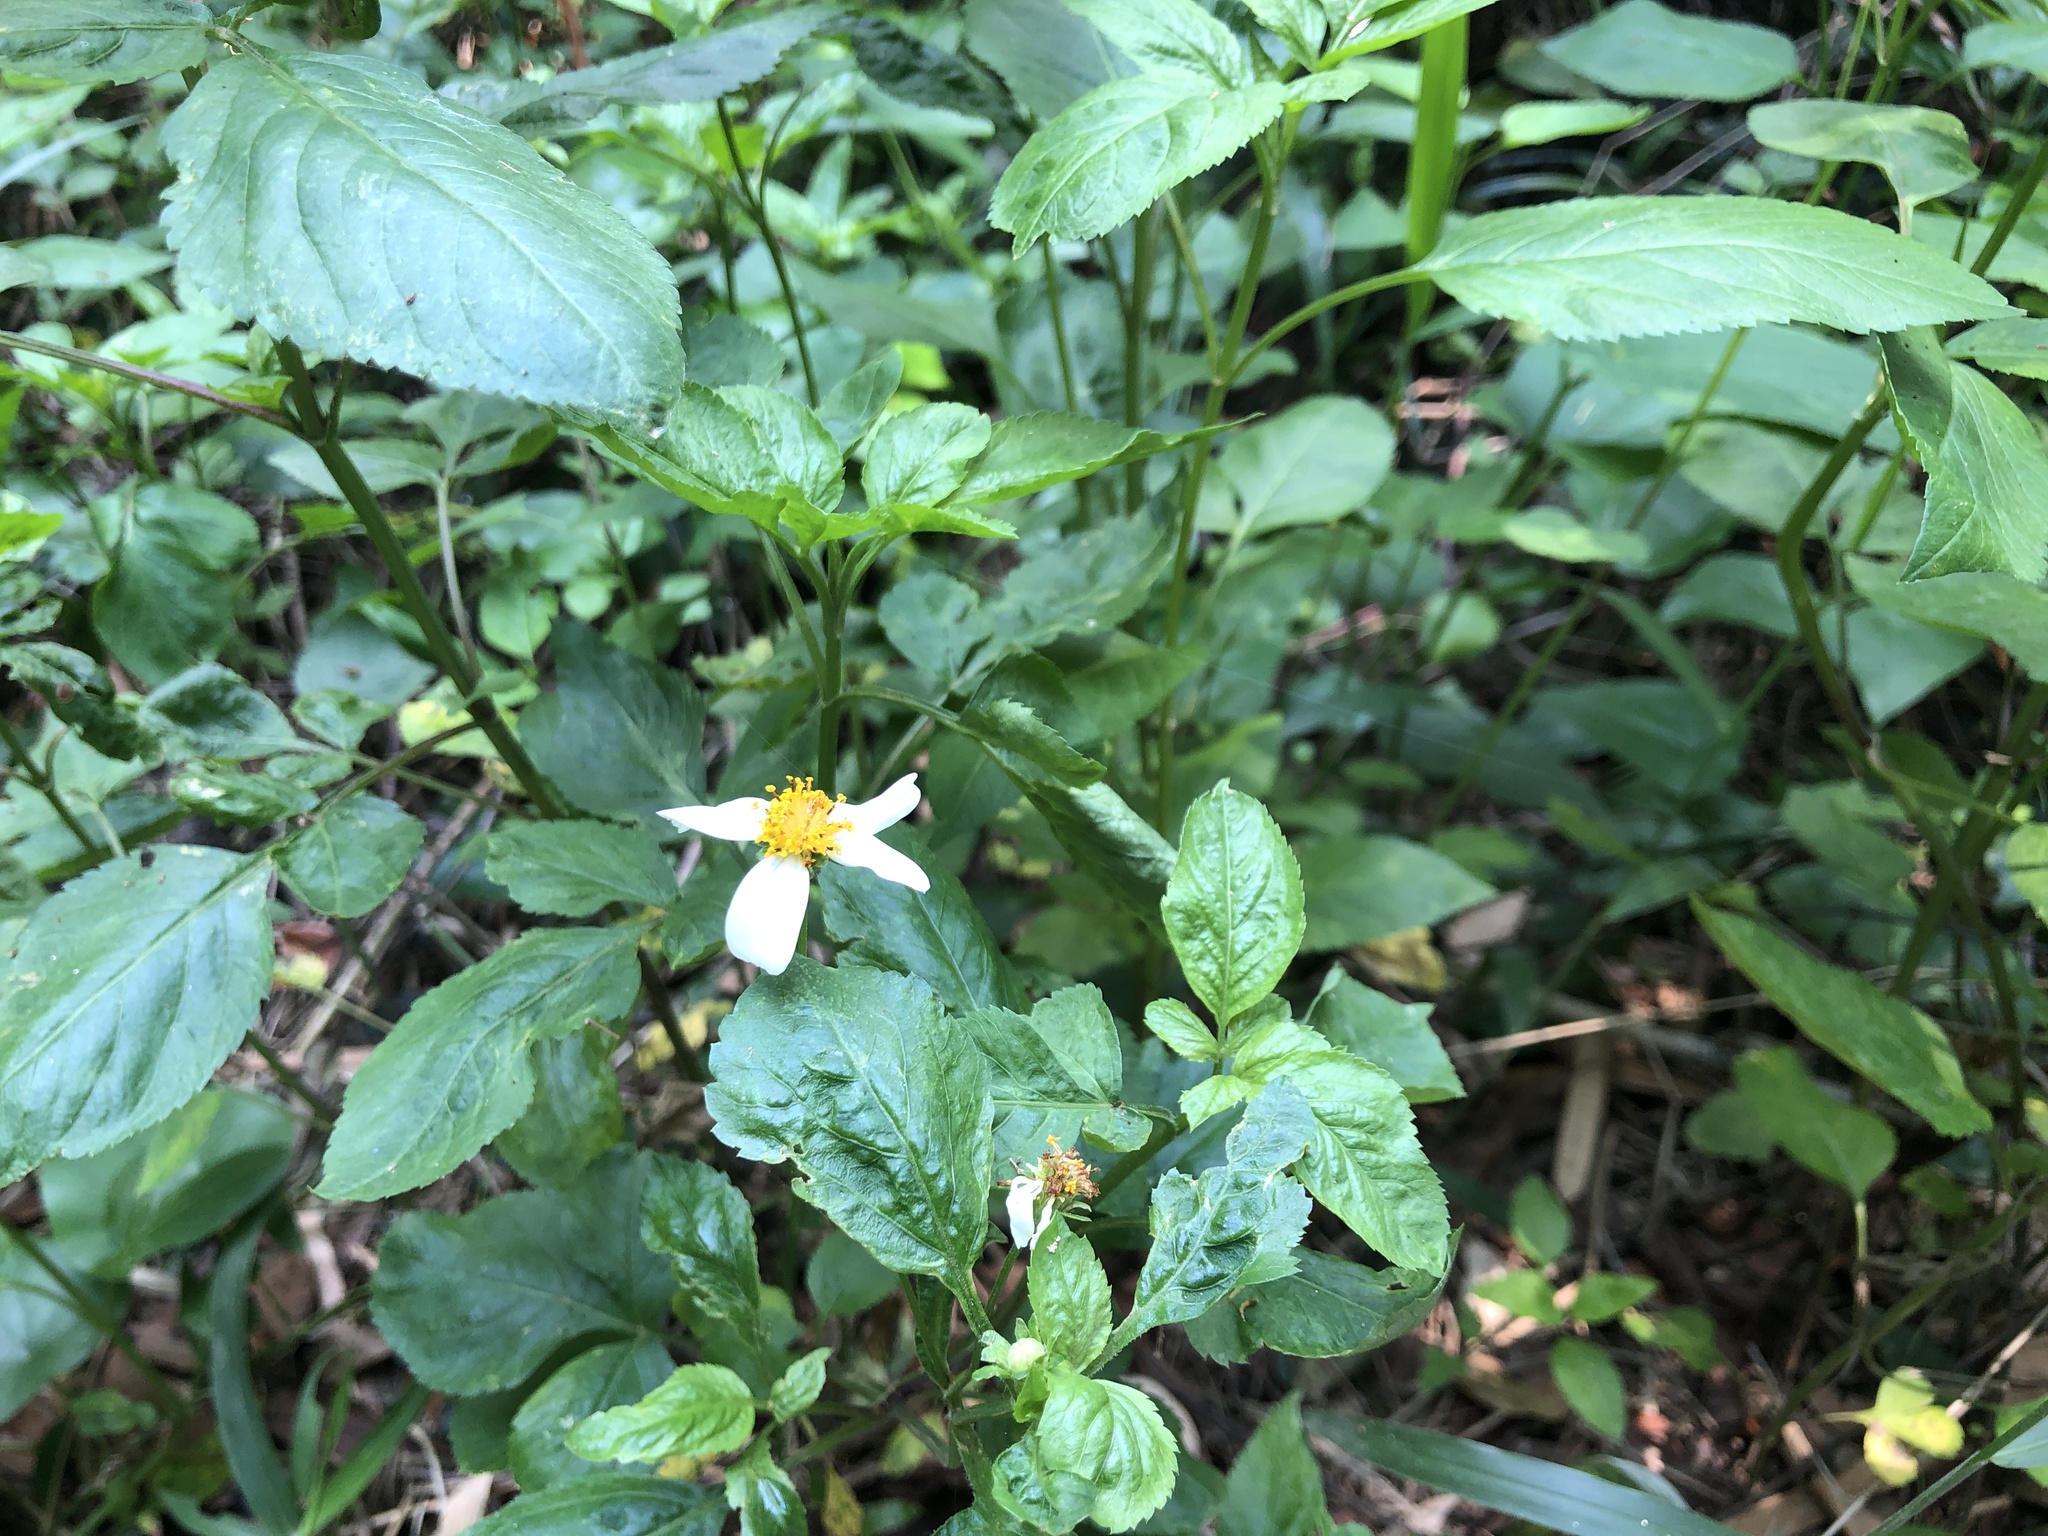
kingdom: Plantae
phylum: Tracheophyta
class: Magnoliopsida
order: Asterales
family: Asteraceae
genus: Bidens
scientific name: Bidens alba
